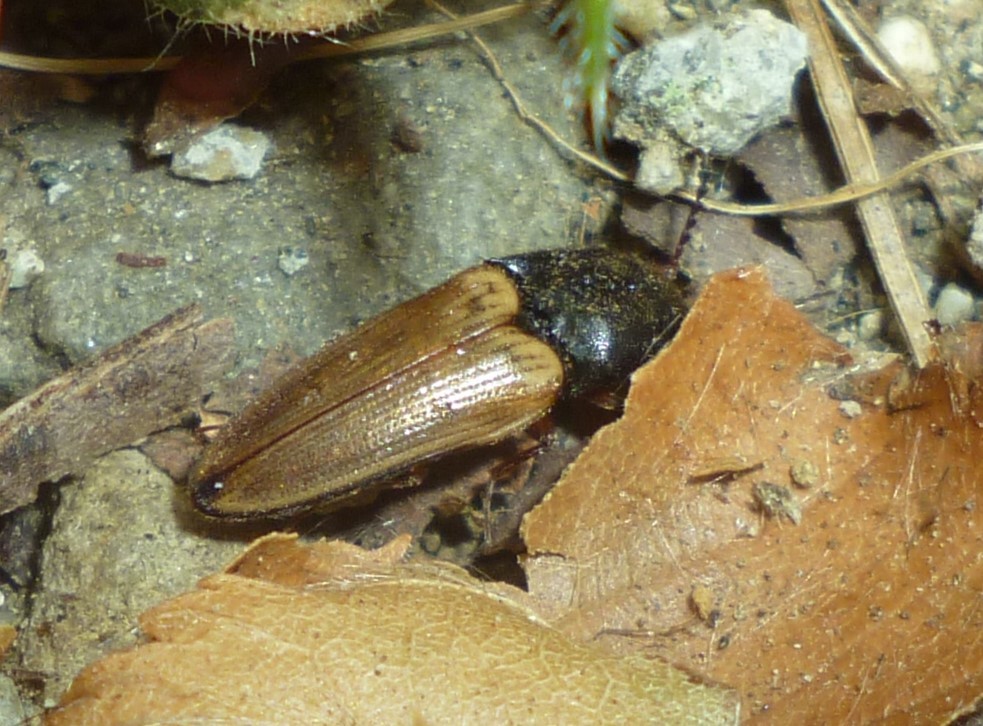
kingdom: Animalia
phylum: Arthropoda
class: Insecta
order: Coleoptera
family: Elateridae
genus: Ampedus
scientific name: Ampedus nigricollis
